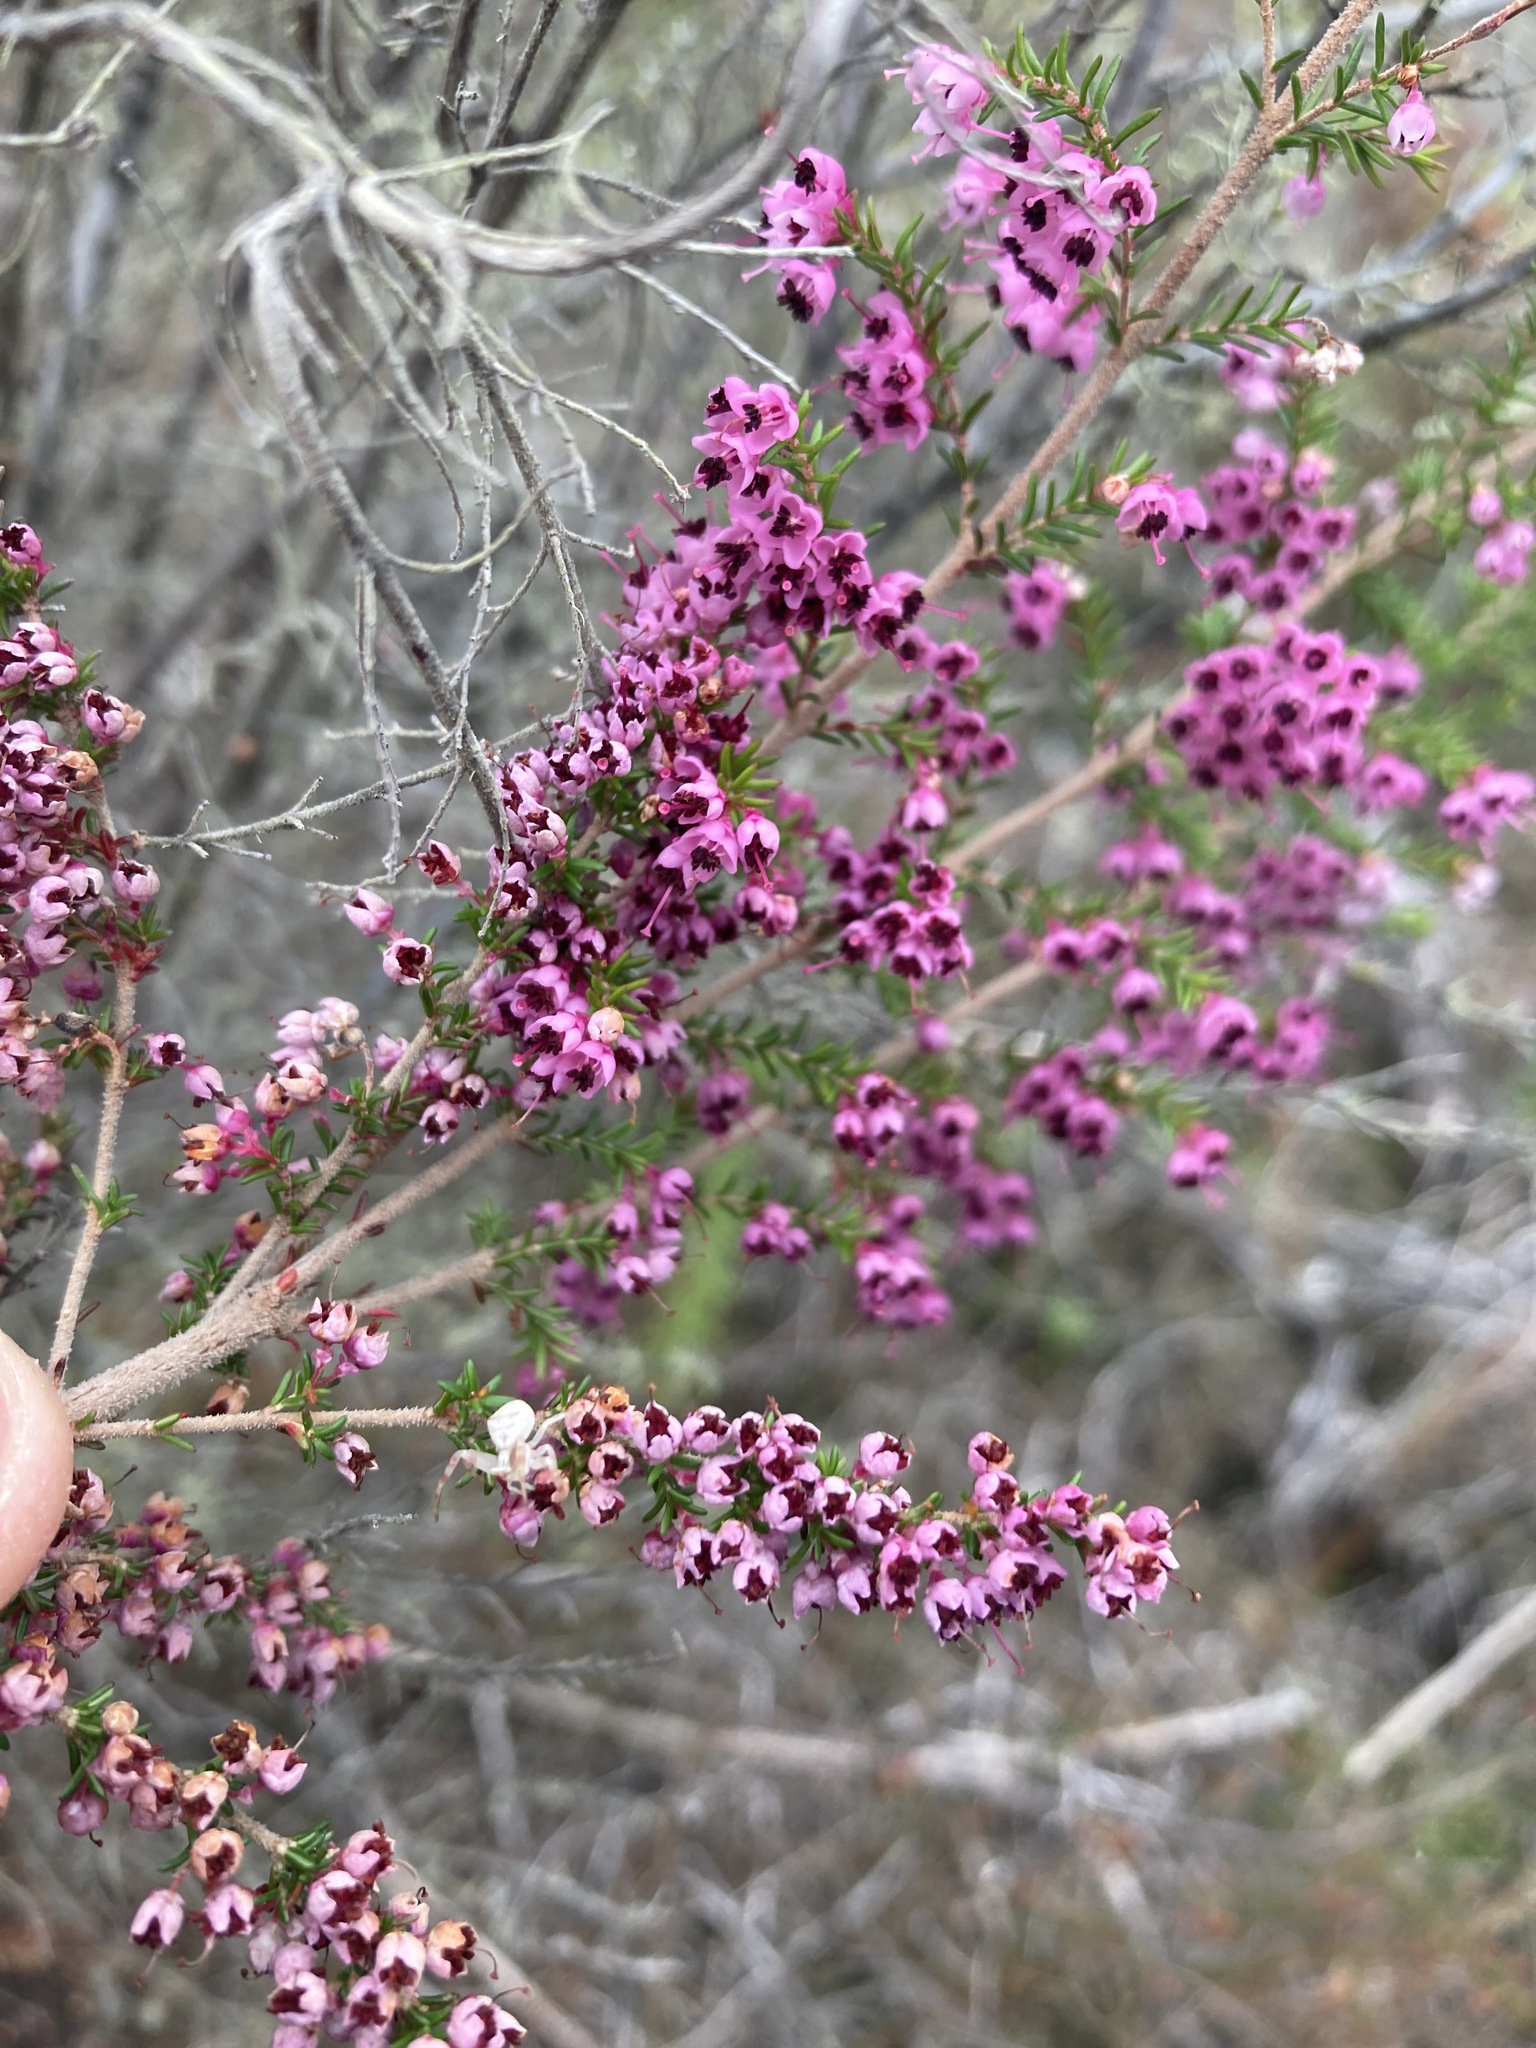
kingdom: Plantae
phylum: Tracheophyta
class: Magnoliopsida
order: Ericales
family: Ericaceae
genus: Erica
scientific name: Erica sparsa
